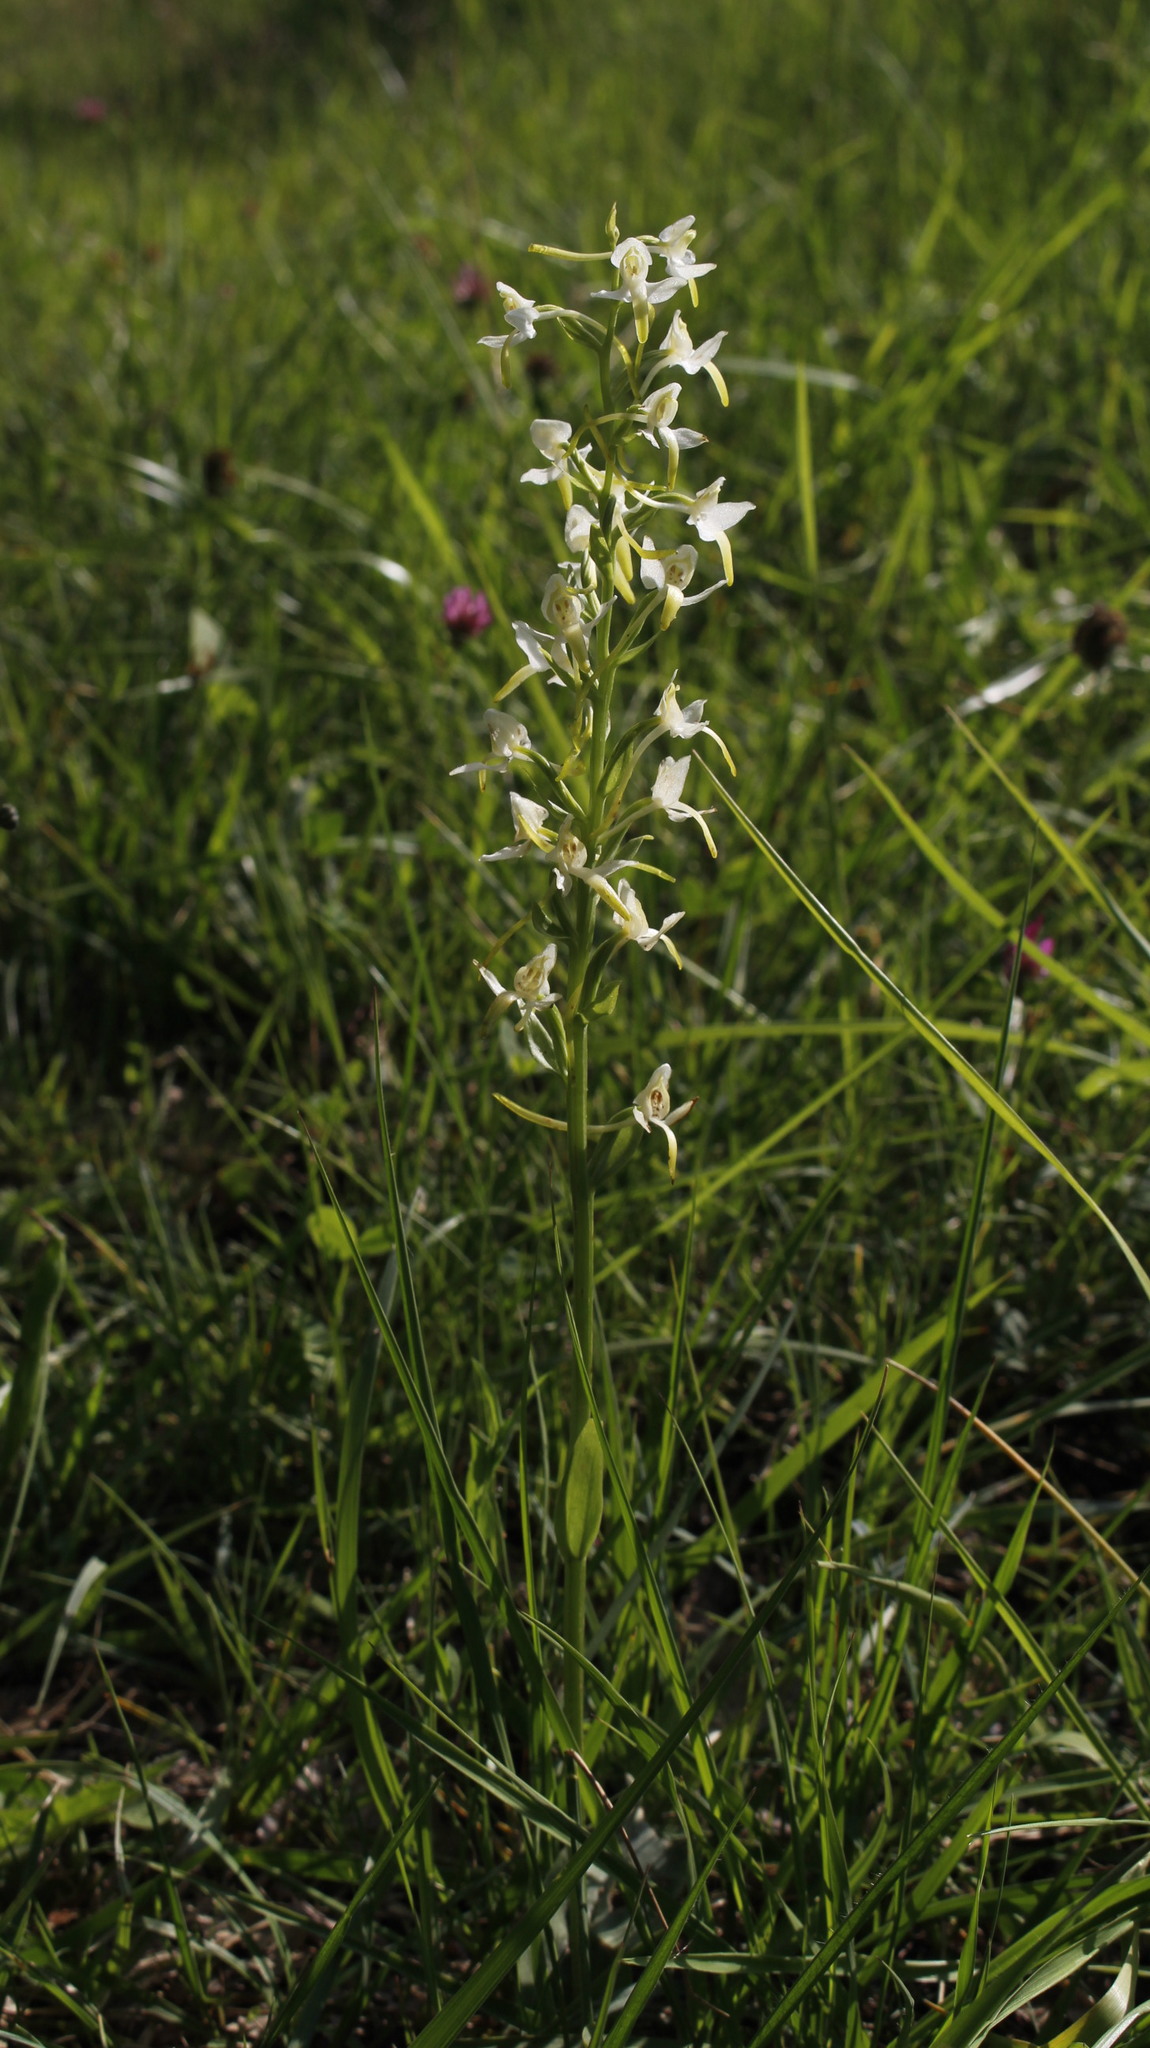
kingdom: Plantae
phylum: Tracheophyta
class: Liliopsida
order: Asparagales
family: Orchidaceae
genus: Platanthera
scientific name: Platanthera bifolia
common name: Lesser butterfly-orchid
